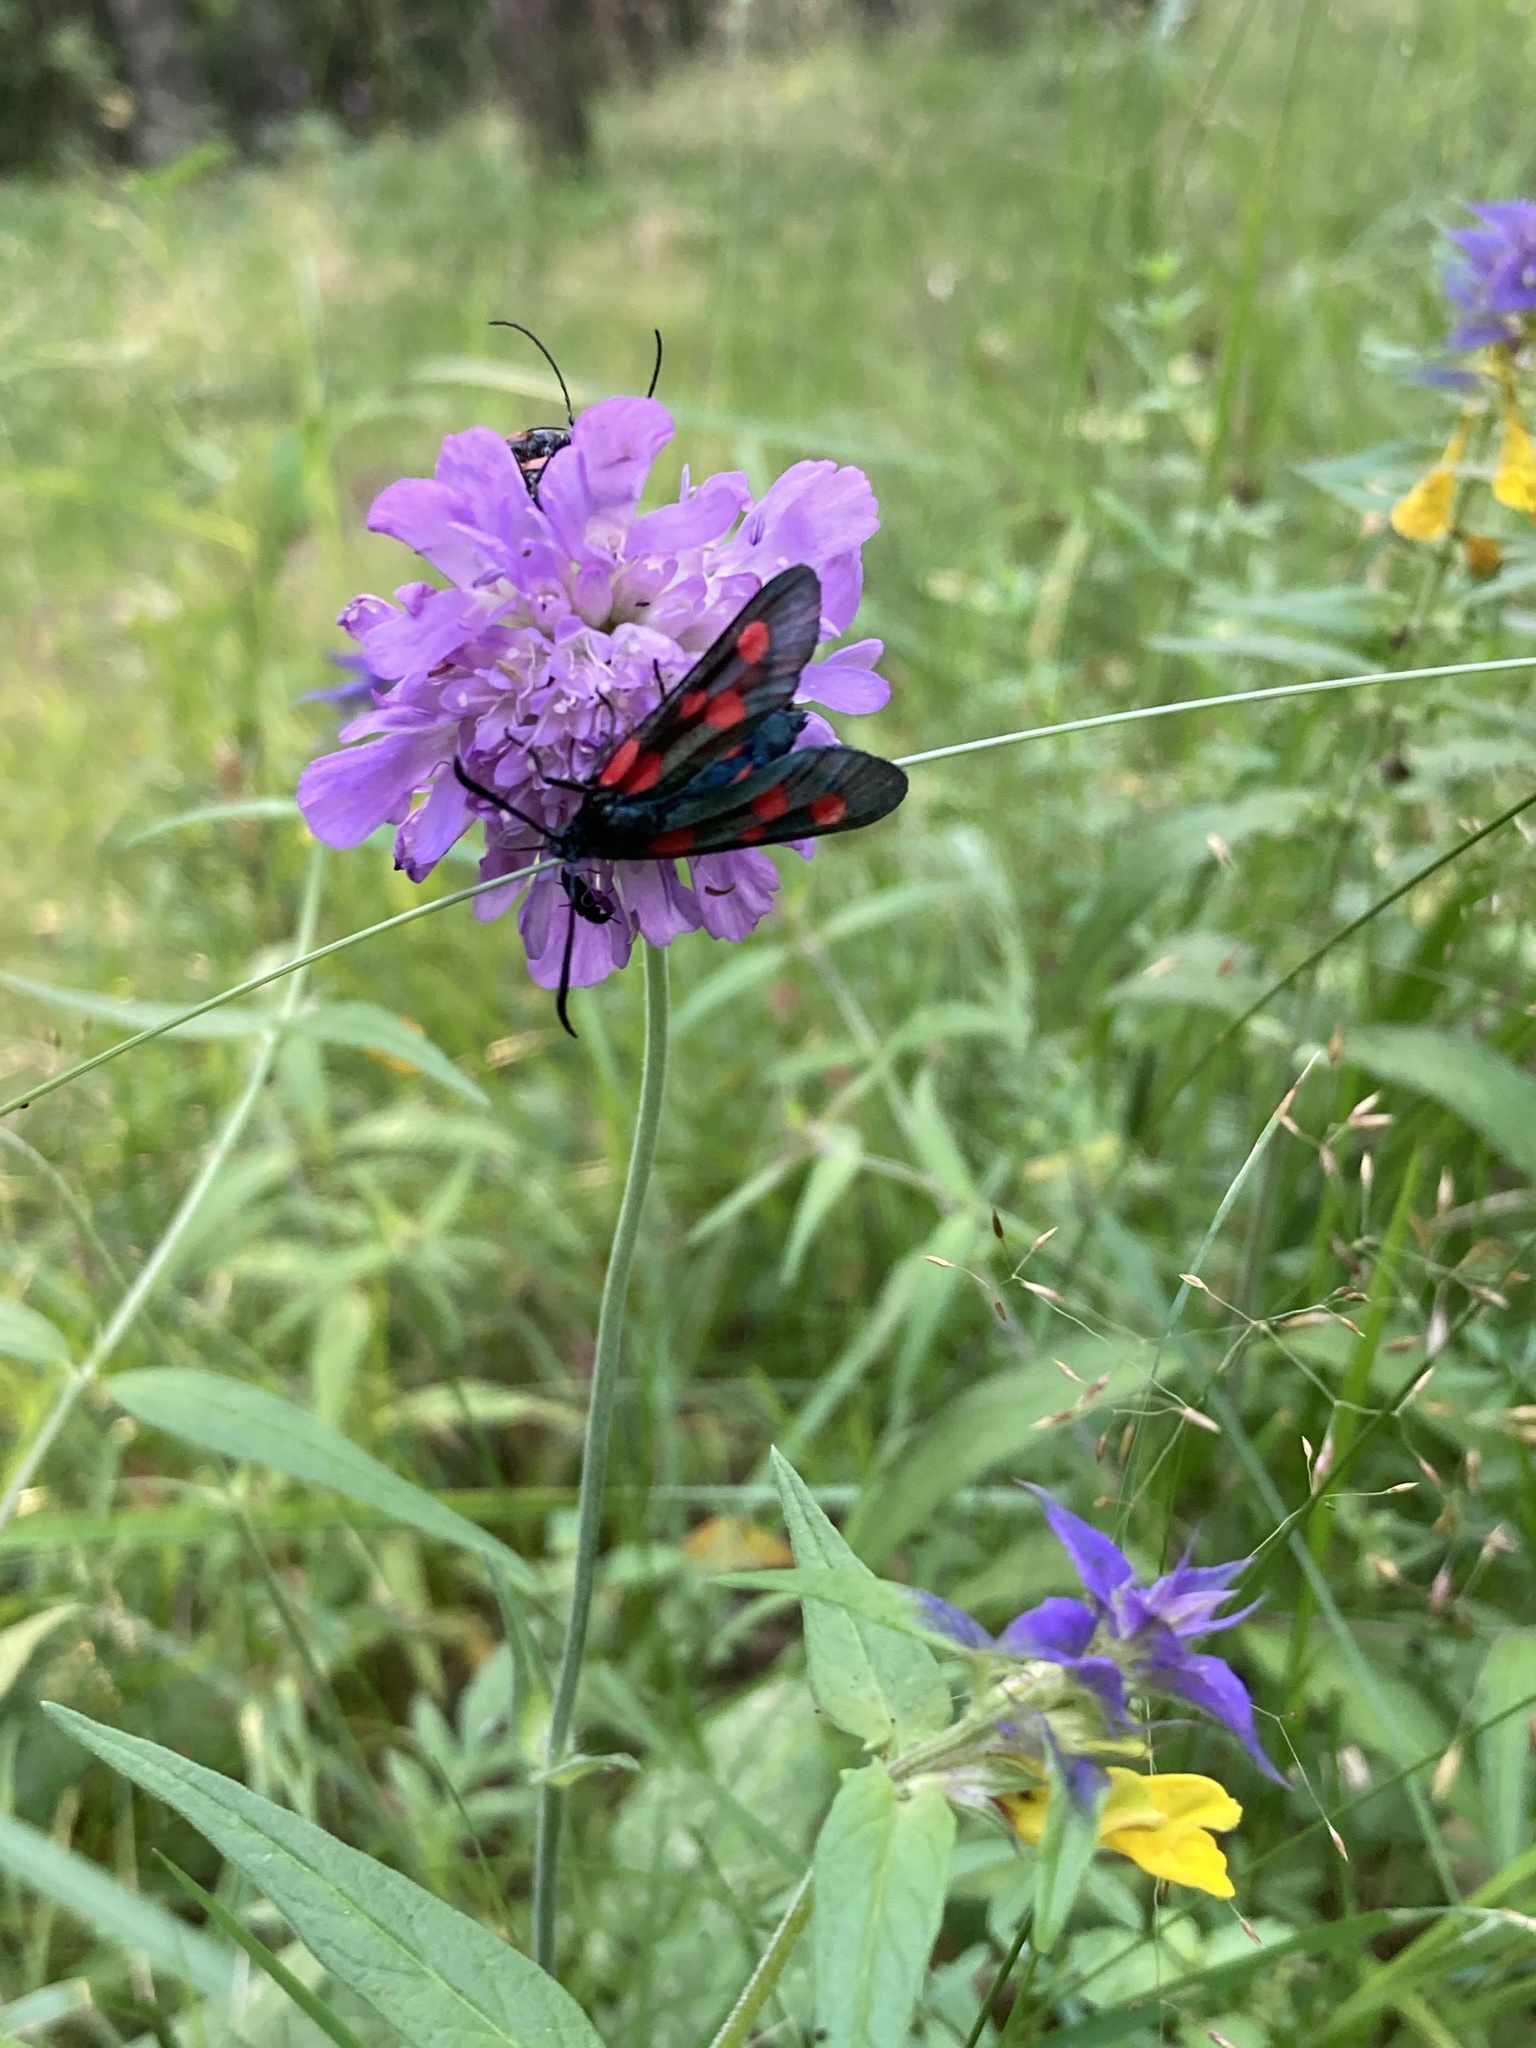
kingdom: Animalia
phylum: Arthropoda
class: Insecta
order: Lepidoptera
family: Zygaenidae
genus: Zygaena
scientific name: Zygaena lonicerae
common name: Narrow-bordered five-spot burnet
